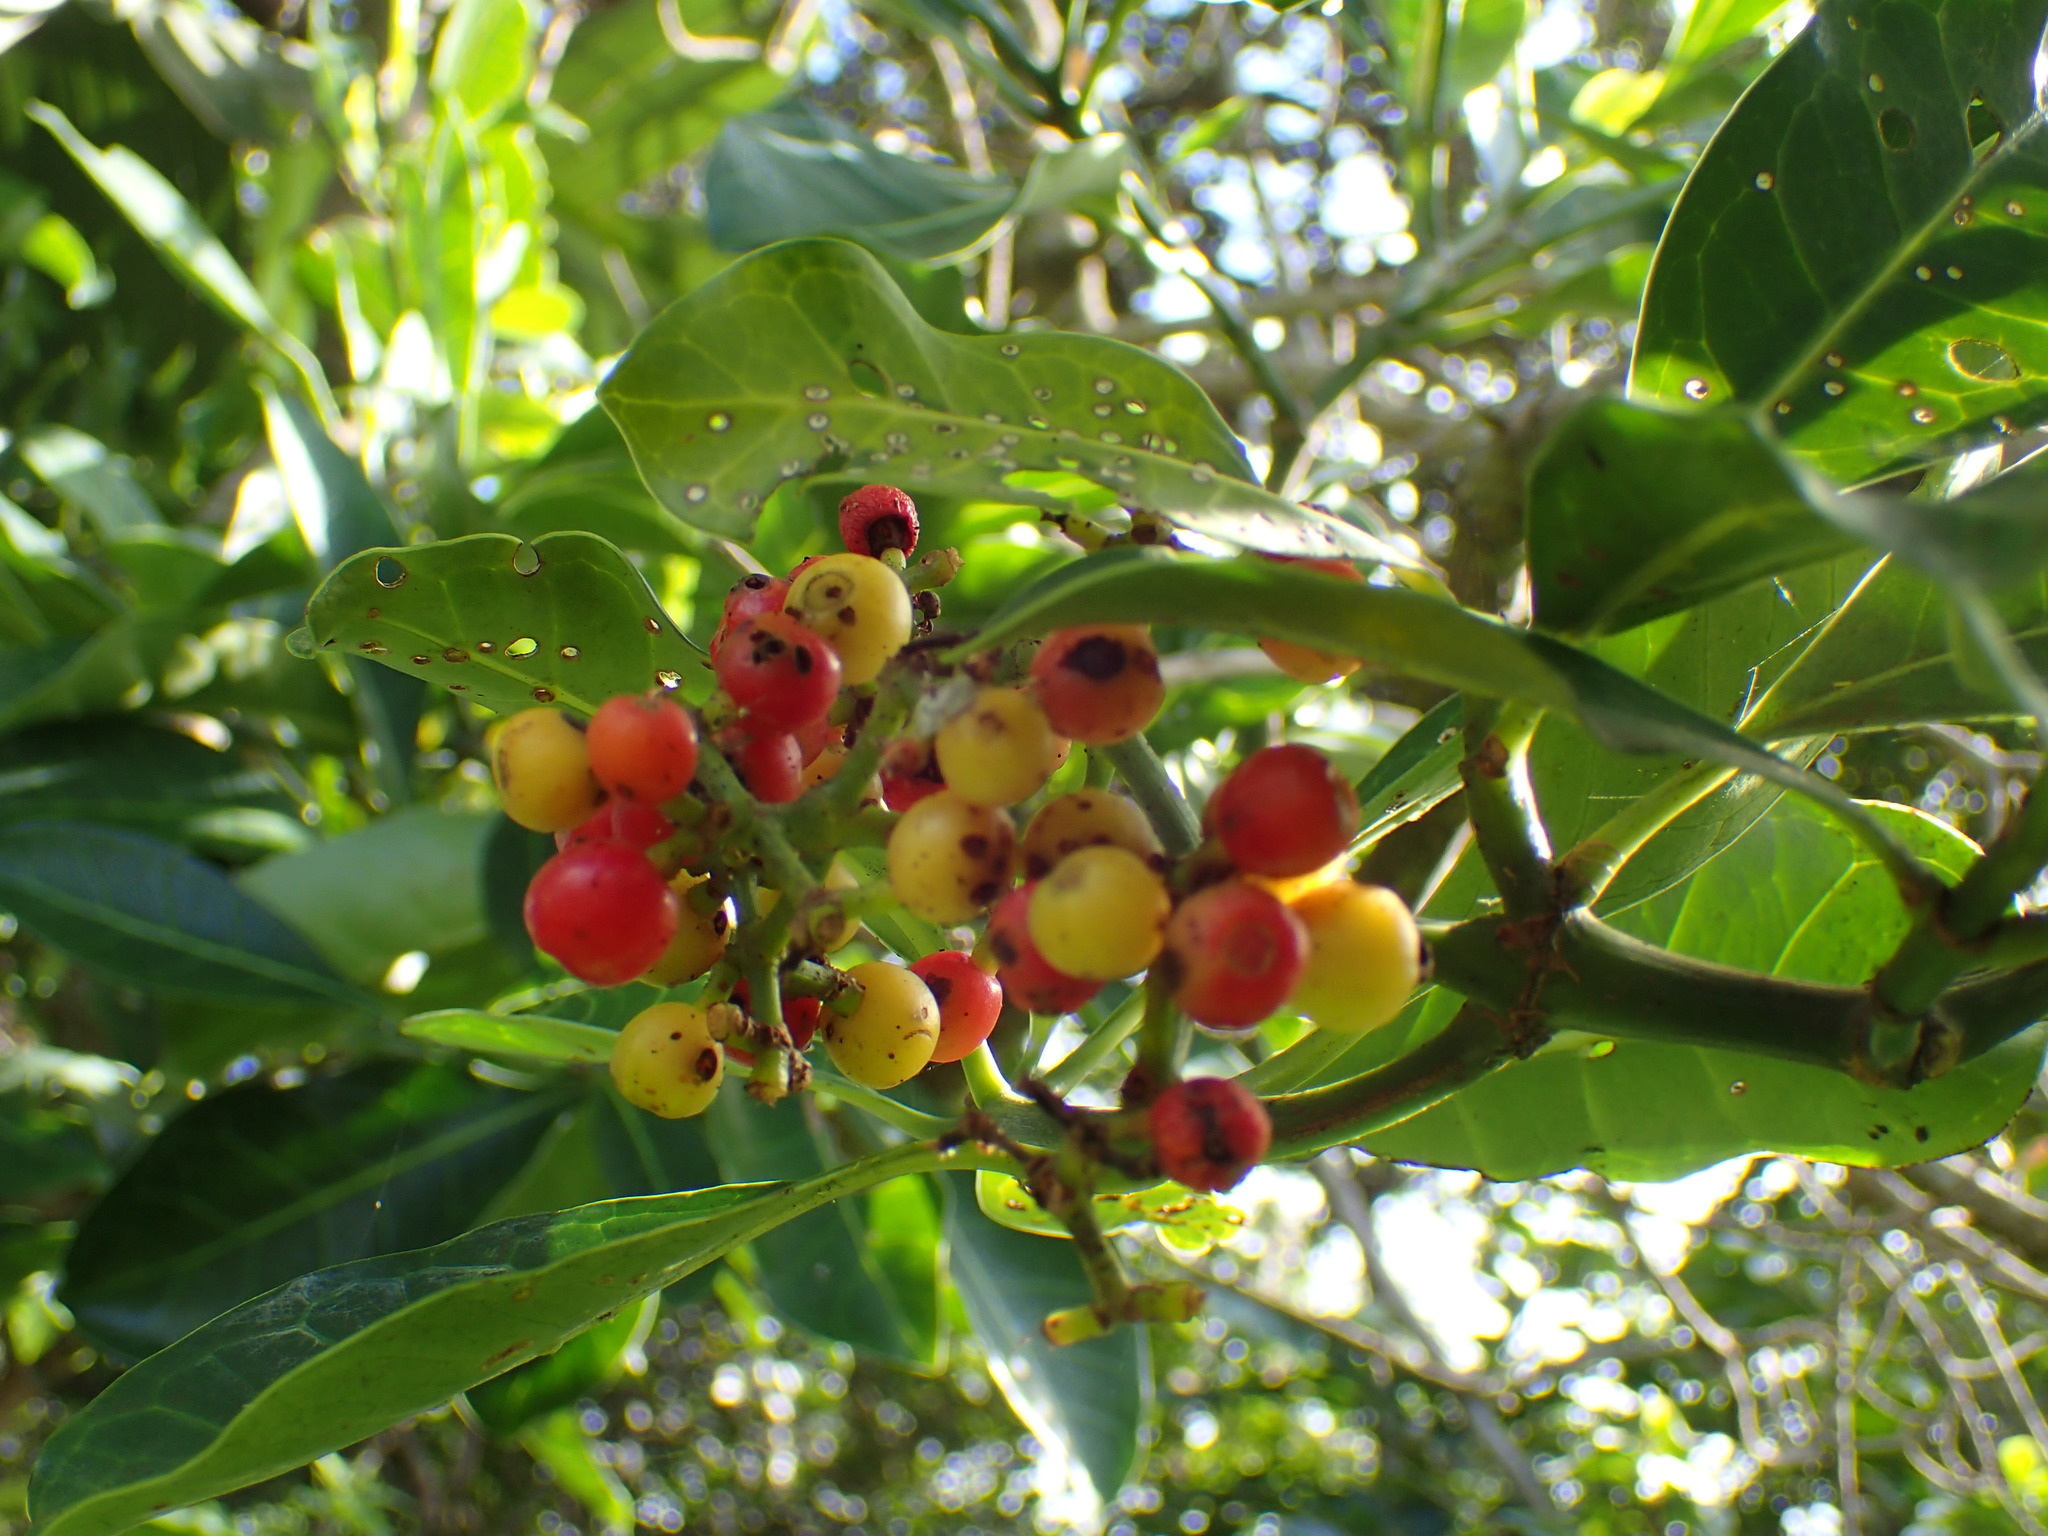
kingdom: Plantae
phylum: Tracheophyta
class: Magnoliopsida
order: Gentianales
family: Rubiaceae
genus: Psychotria
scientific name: Psychotria capensis
